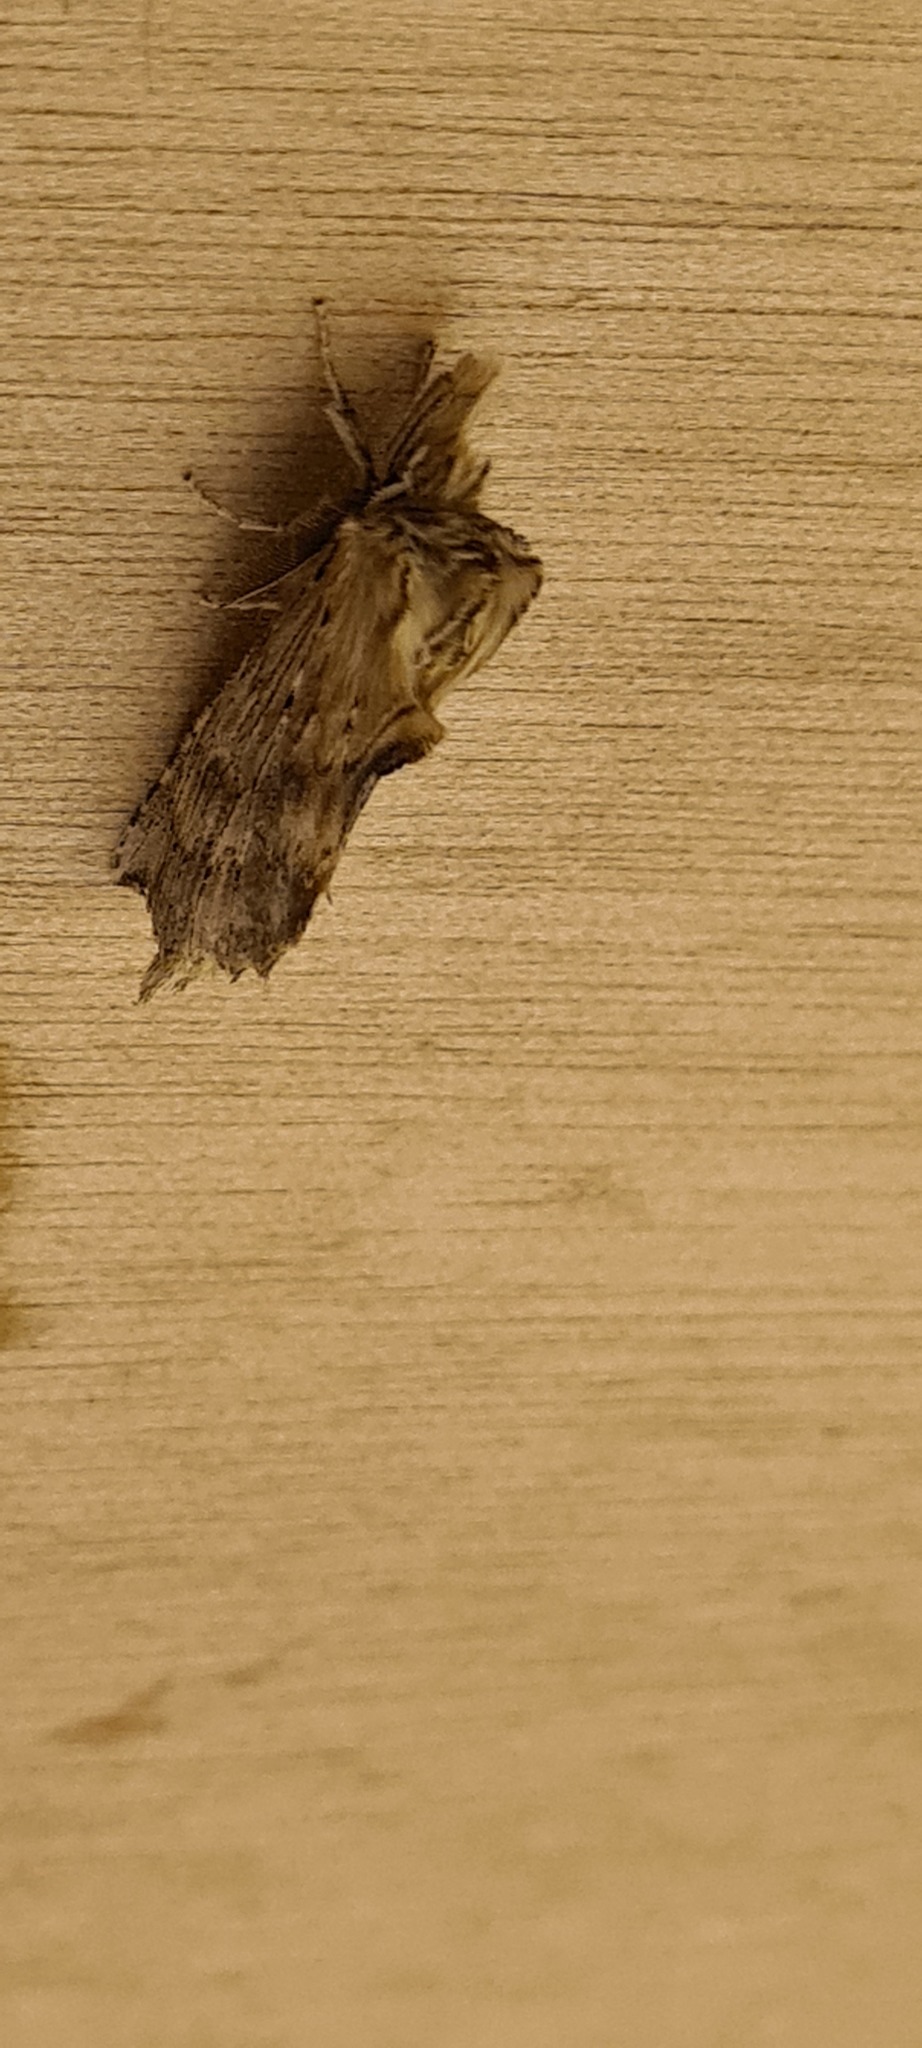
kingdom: Animalia
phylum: Arthropoda
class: Insecta
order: Lepidoptera
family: Notodontidae
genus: Pterostoma
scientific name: Pterostoma palpina
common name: Pale prominent
